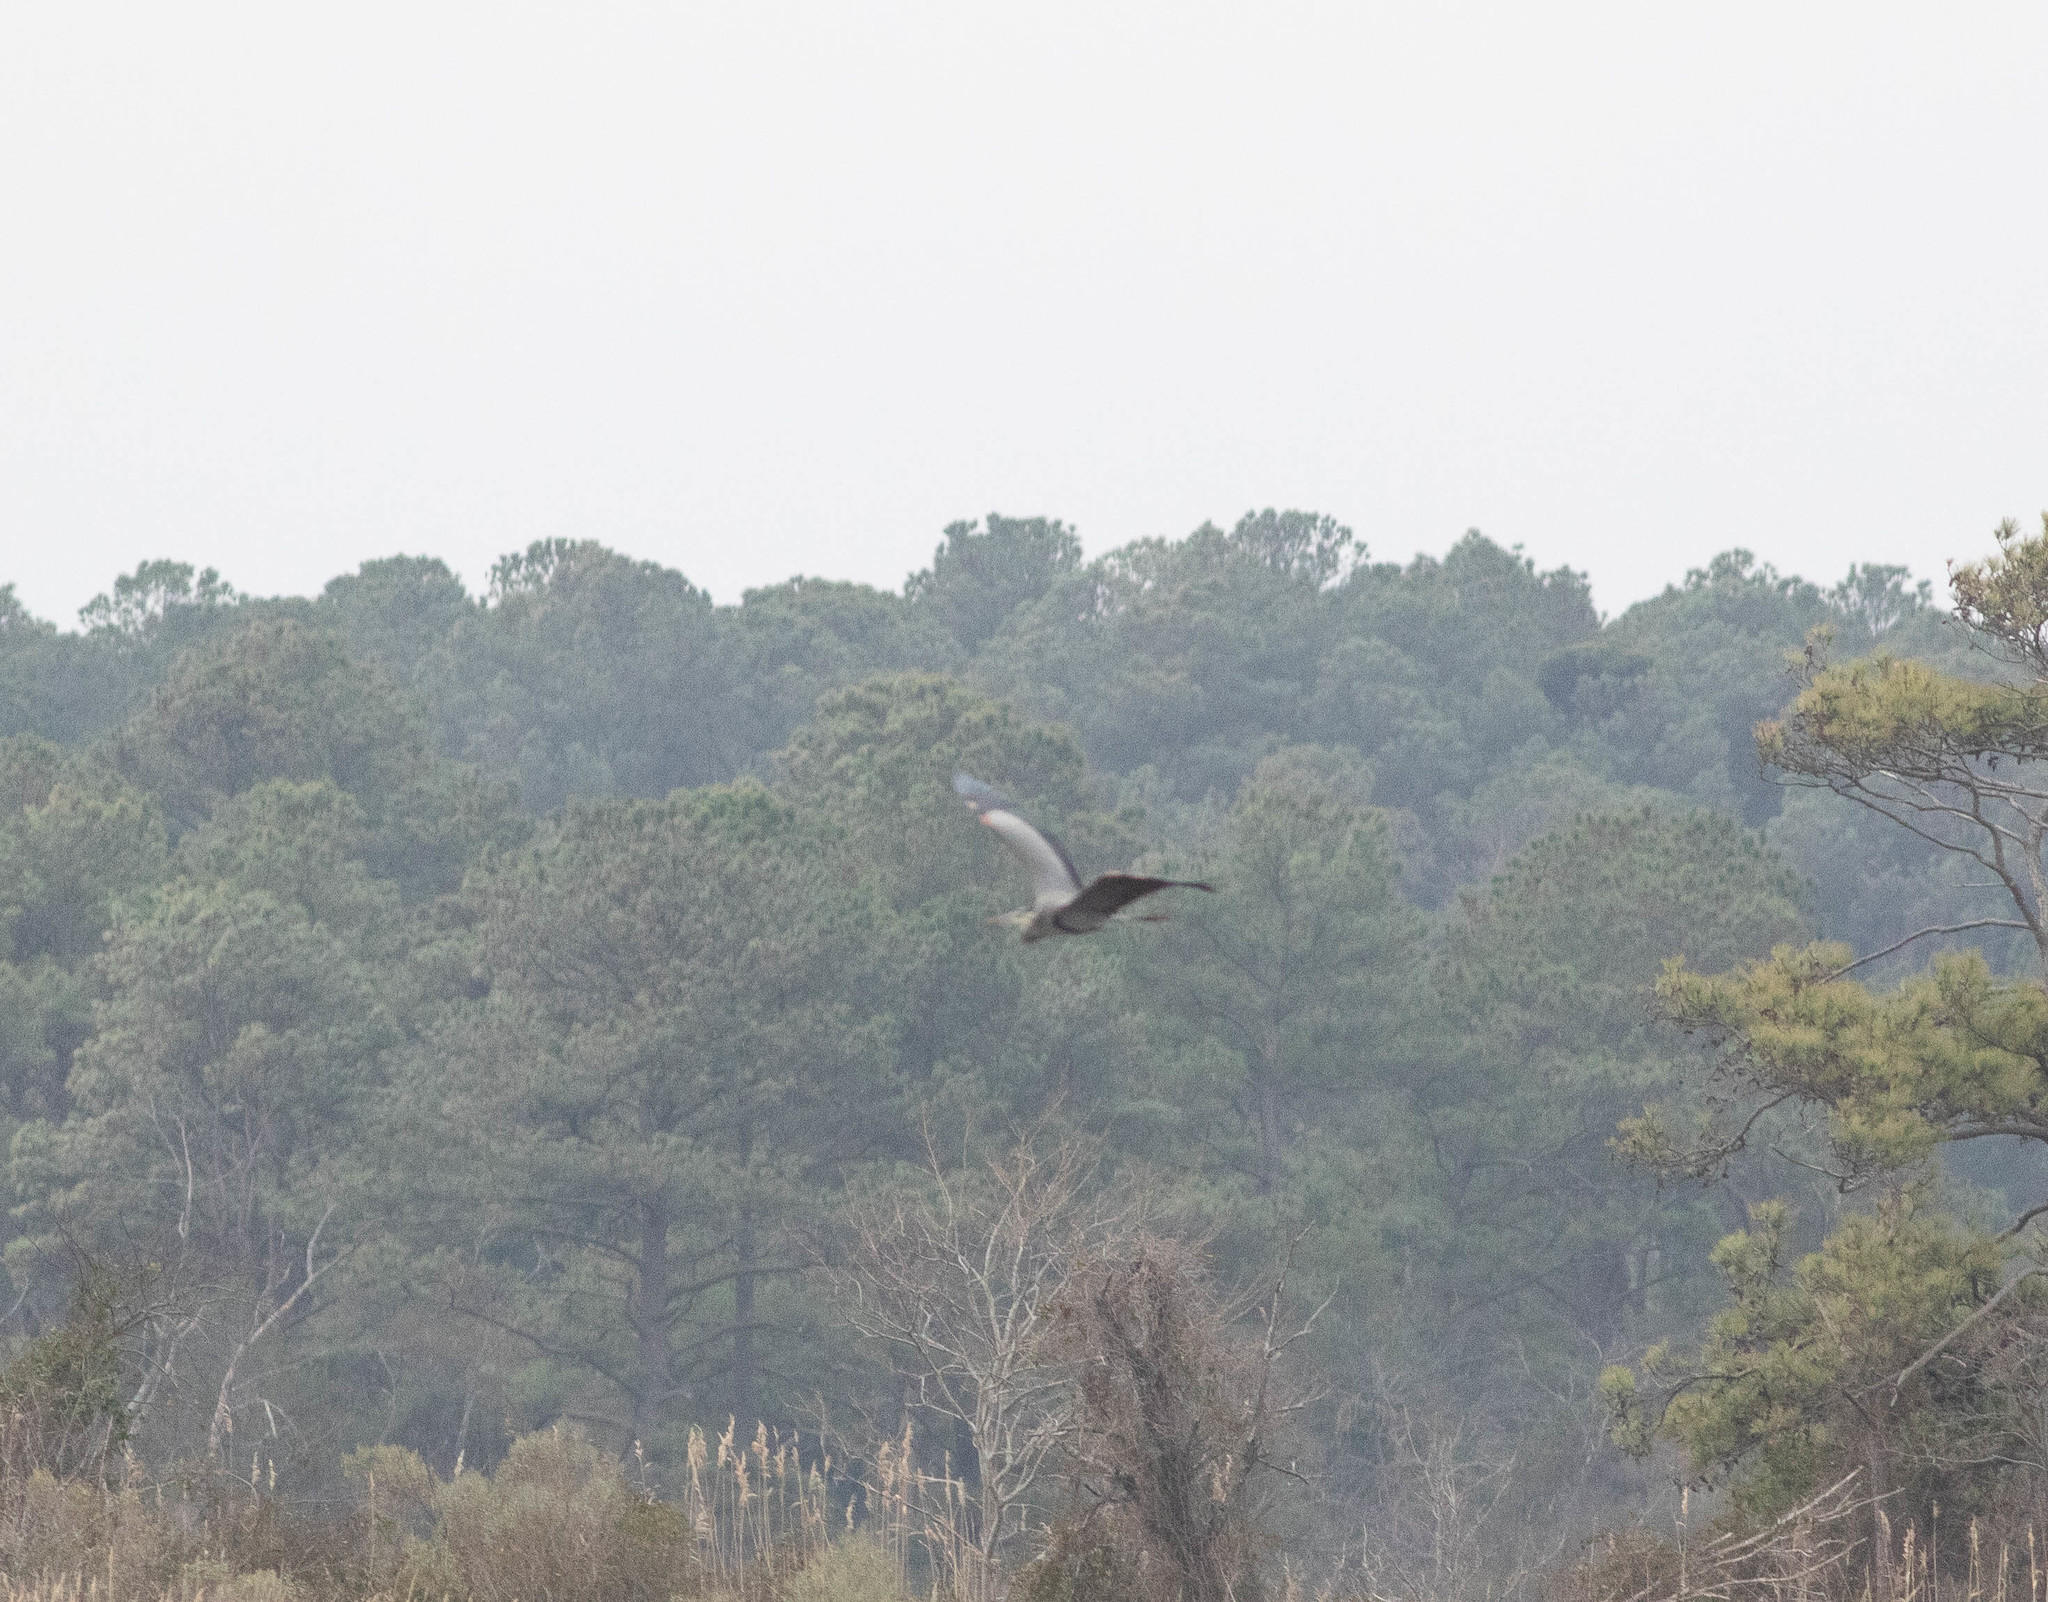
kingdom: Animalia
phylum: Chordata
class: Aves
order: Pelecaniformes
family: Ardeidae
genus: Ardea
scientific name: Ardea herodias
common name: Great blue heron
